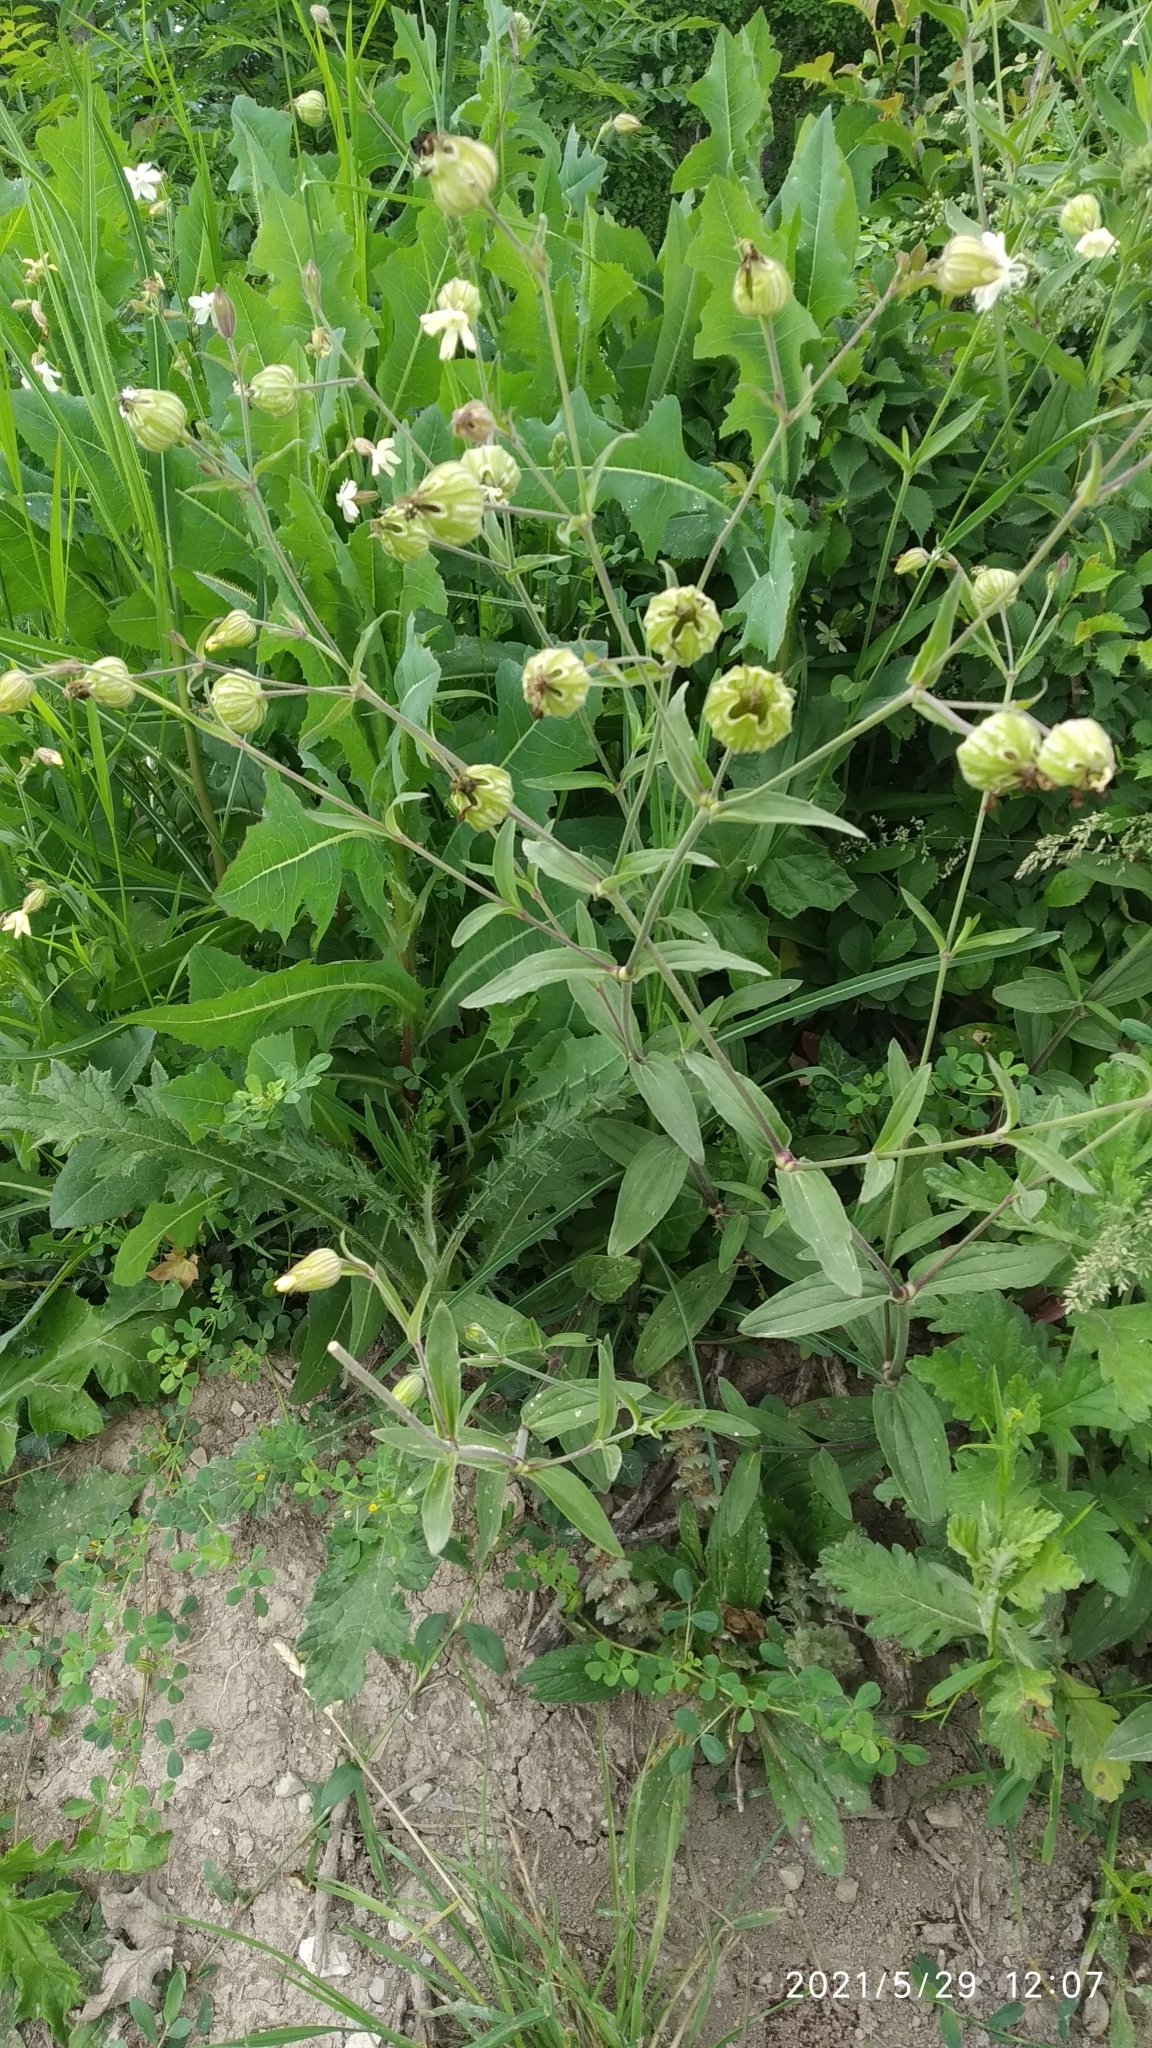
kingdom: Plantae
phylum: Tracheophyta
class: Magnoliopsida
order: Caryophyllales
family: Caryophyllaceae
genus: Silene
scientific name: Silene latifolia
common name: White campion
